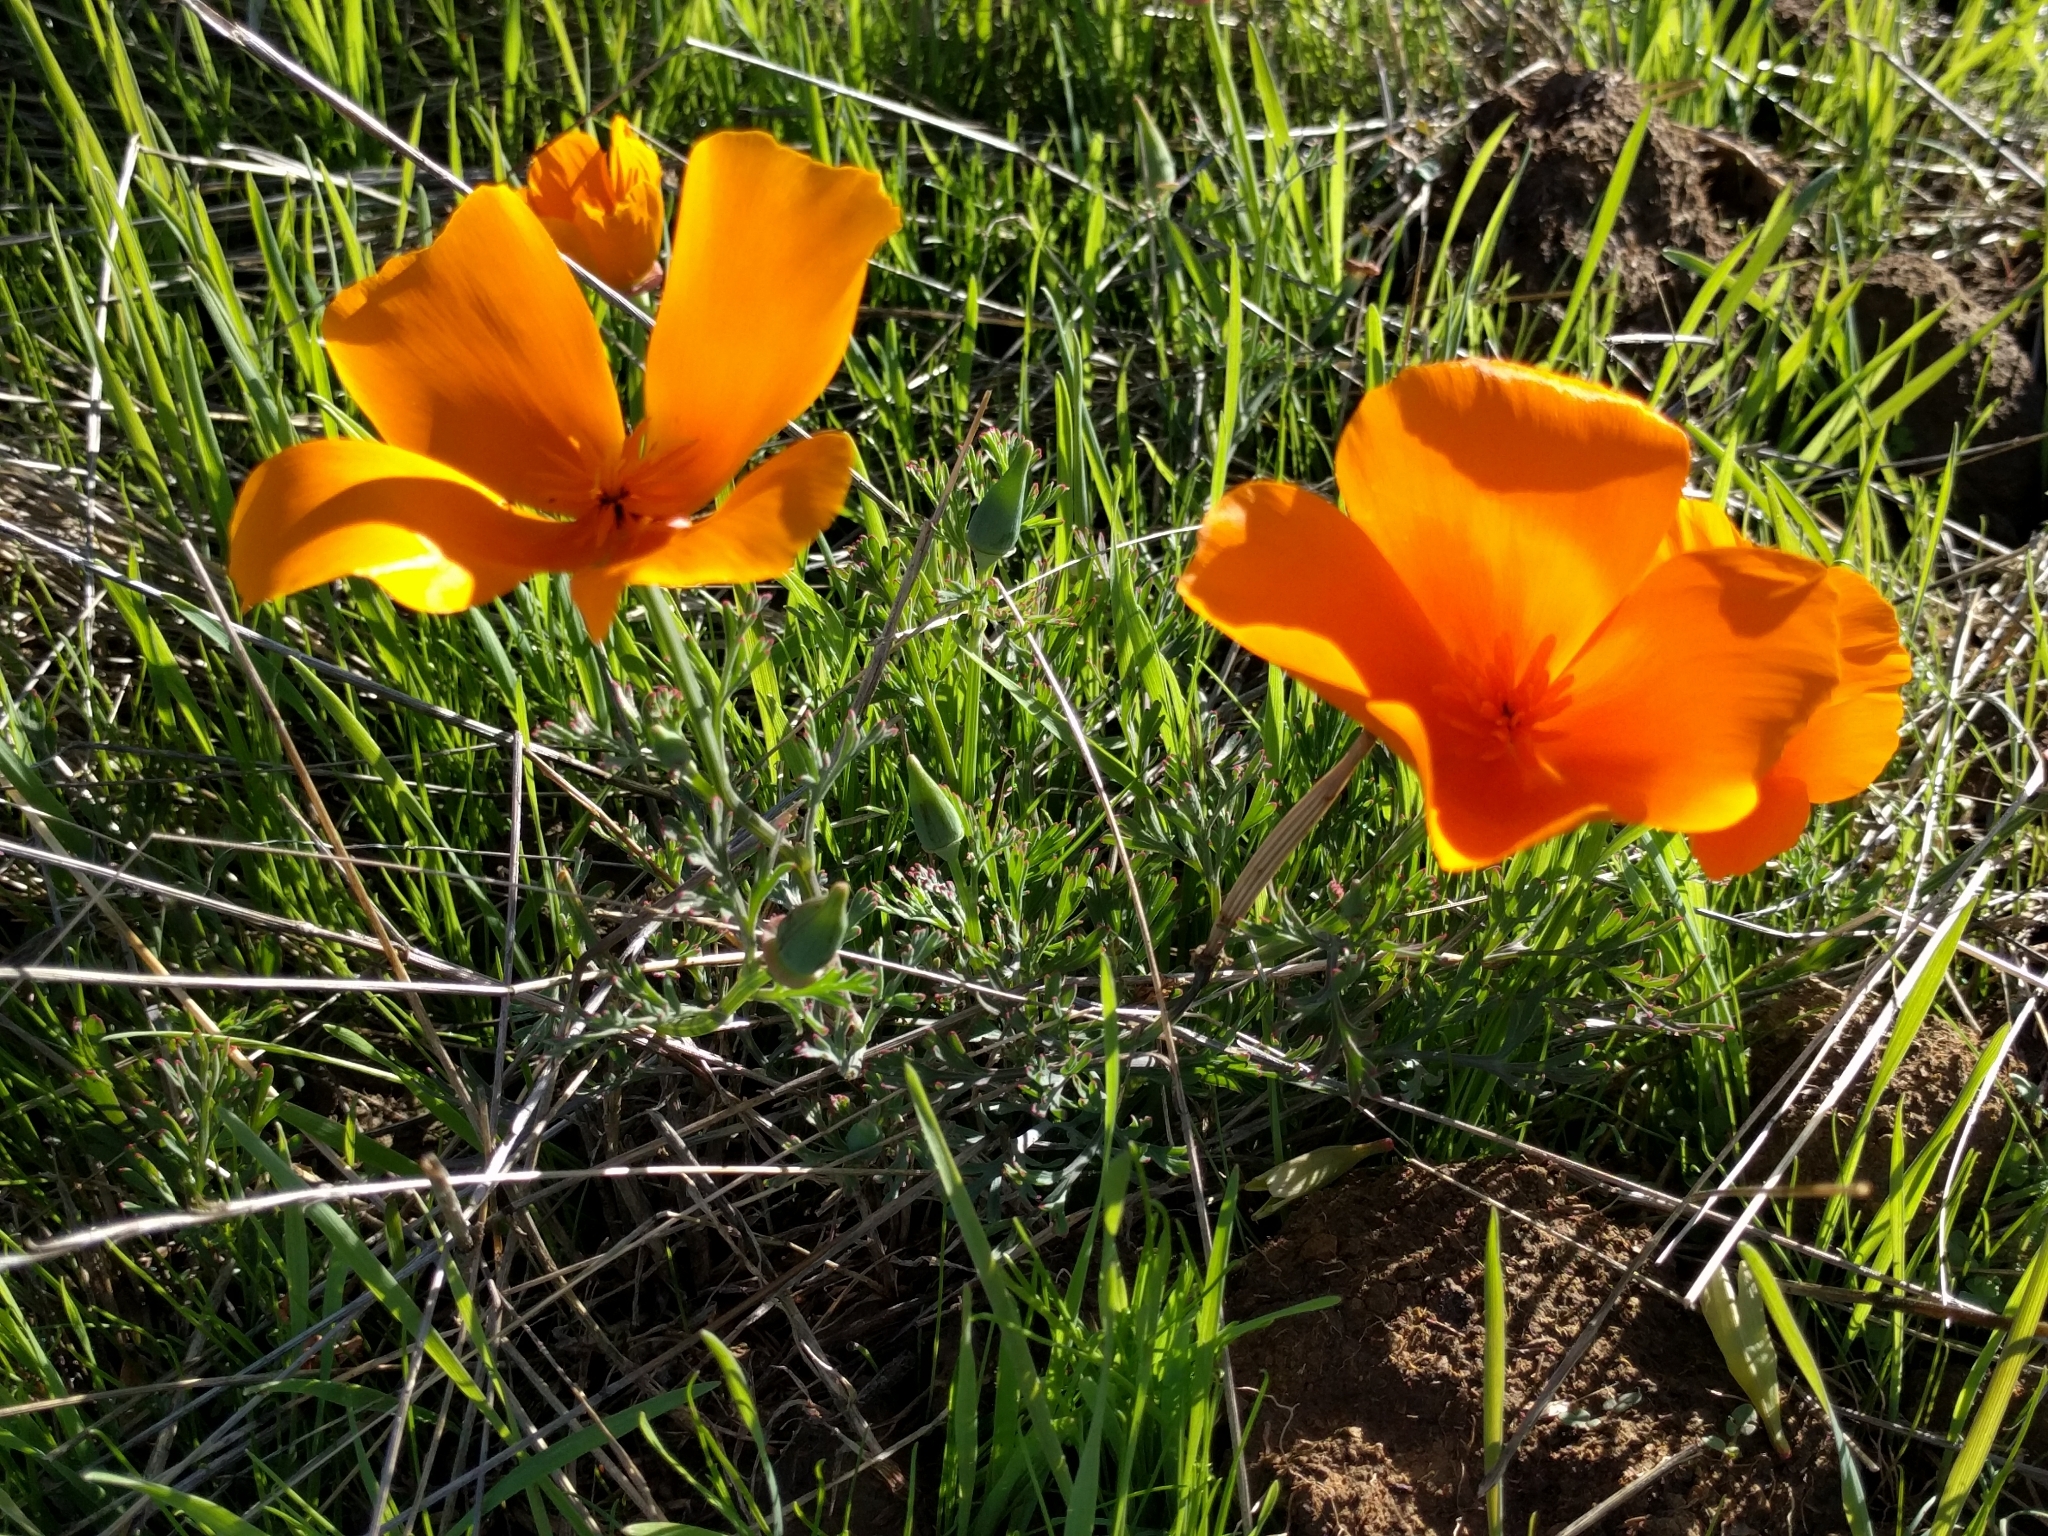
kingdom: Plantae
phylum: Tracheophyta
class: Magnoliopsida
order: Ranunculales
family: Papaveraceae
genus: Eschscholzia
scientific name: Eschscholzia californica
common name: California poppy
